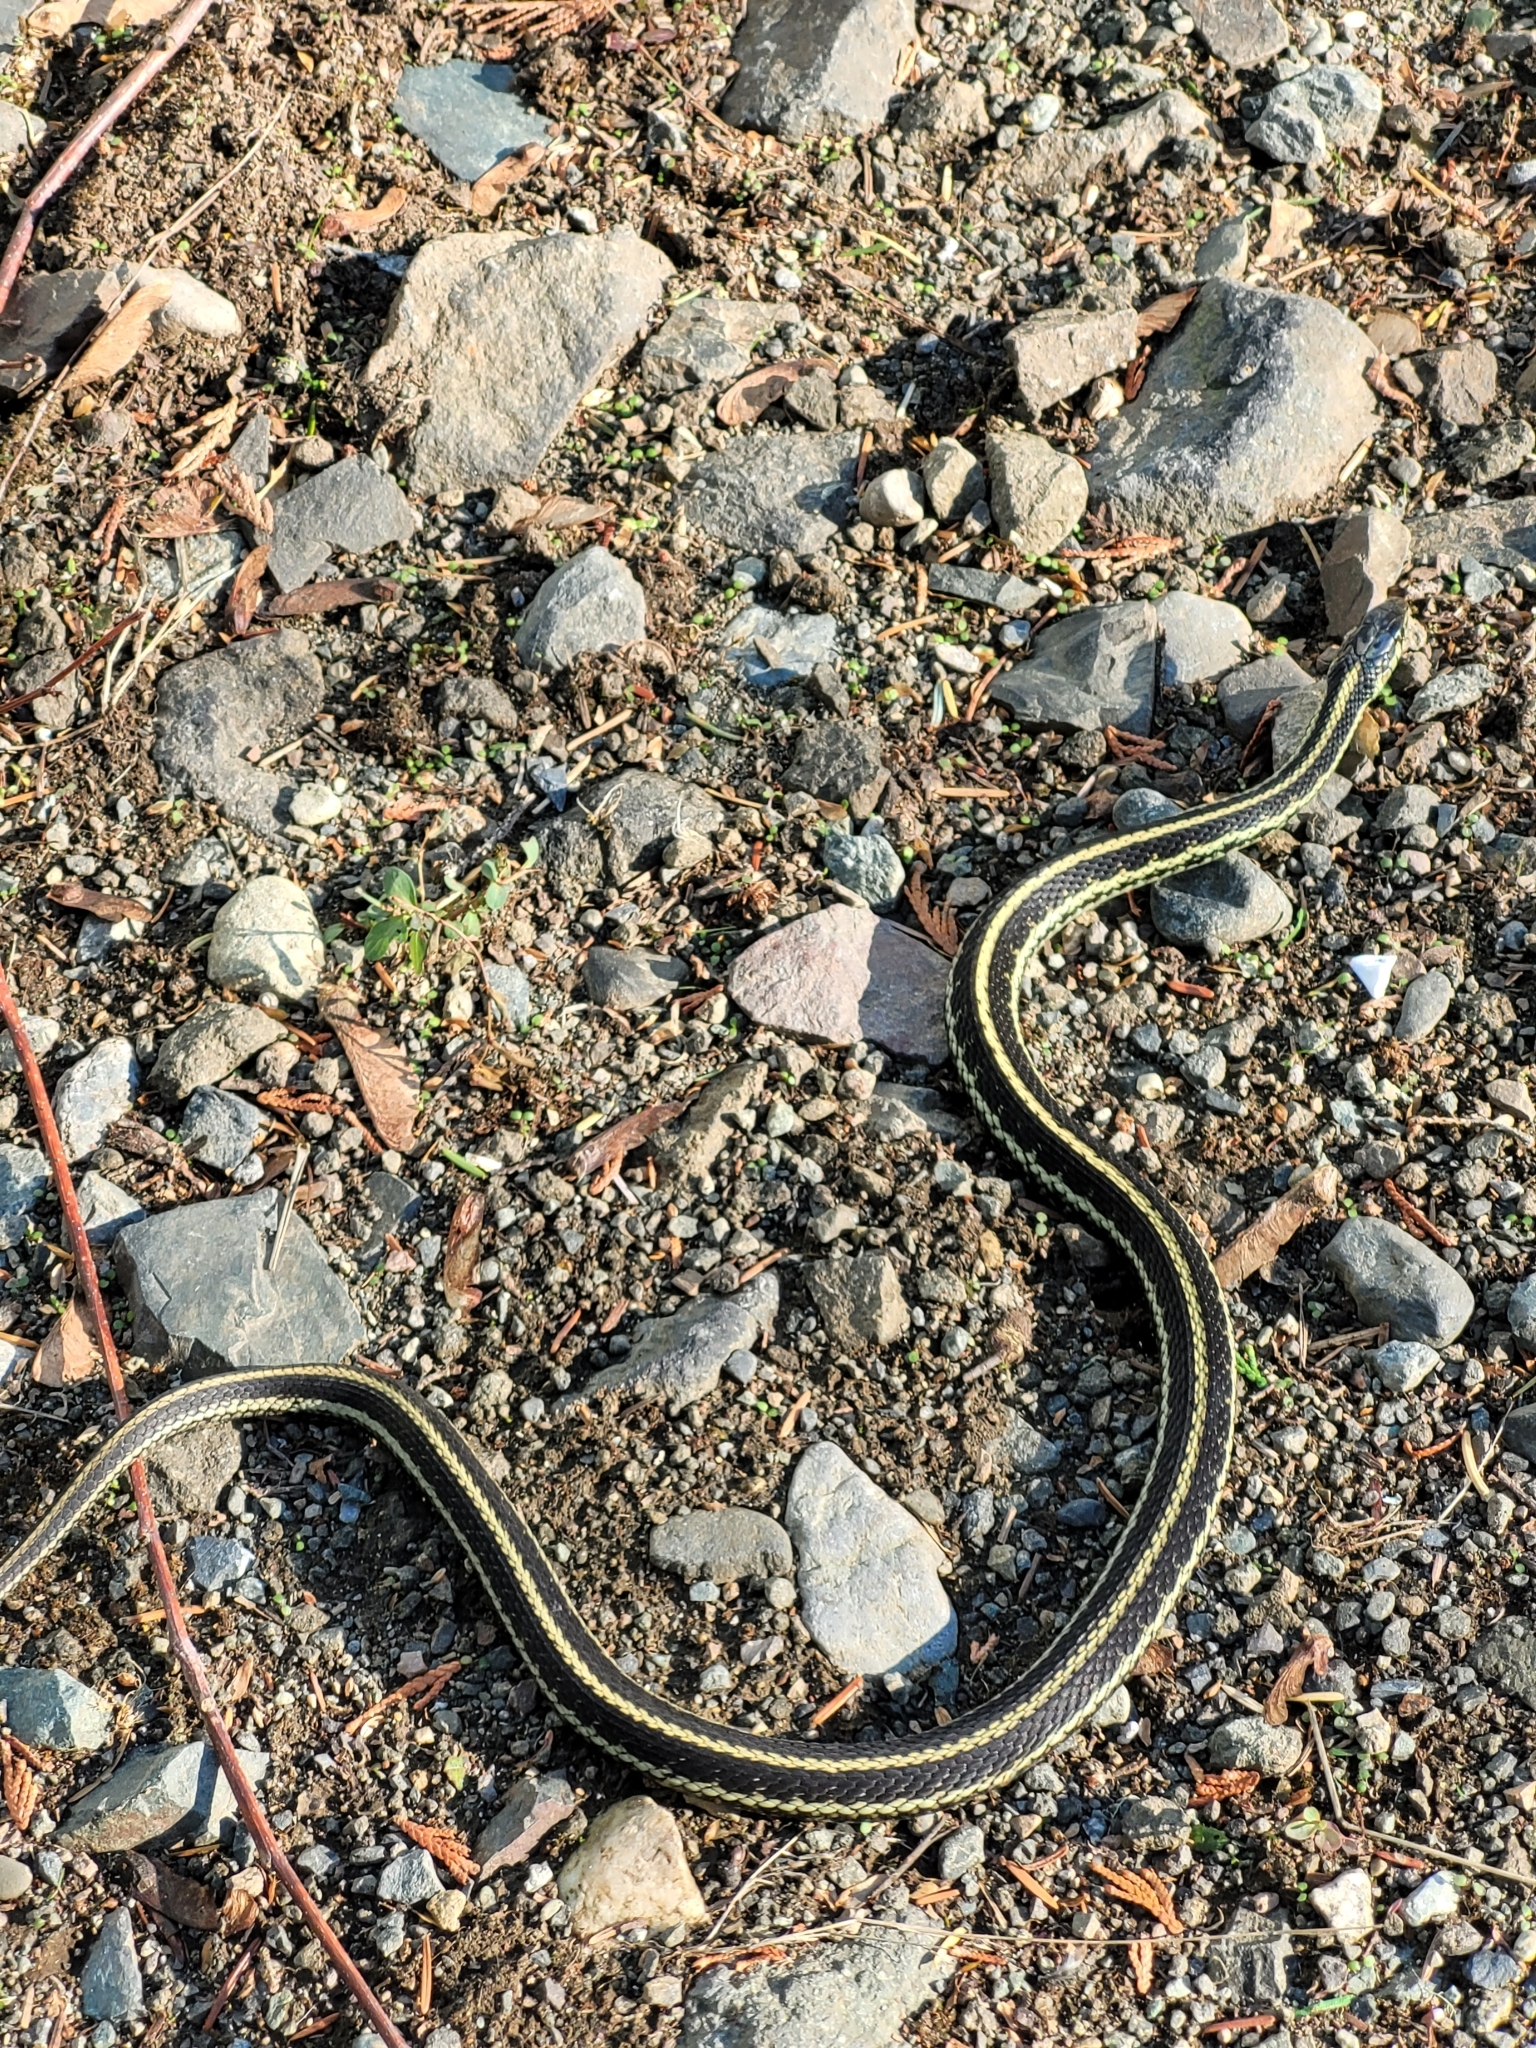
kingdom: Animalia
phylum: Chordata
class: Squamata
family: Colubridae
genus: Thamnophis
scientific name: Thamnophis sirtalis
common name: Common garter snake
